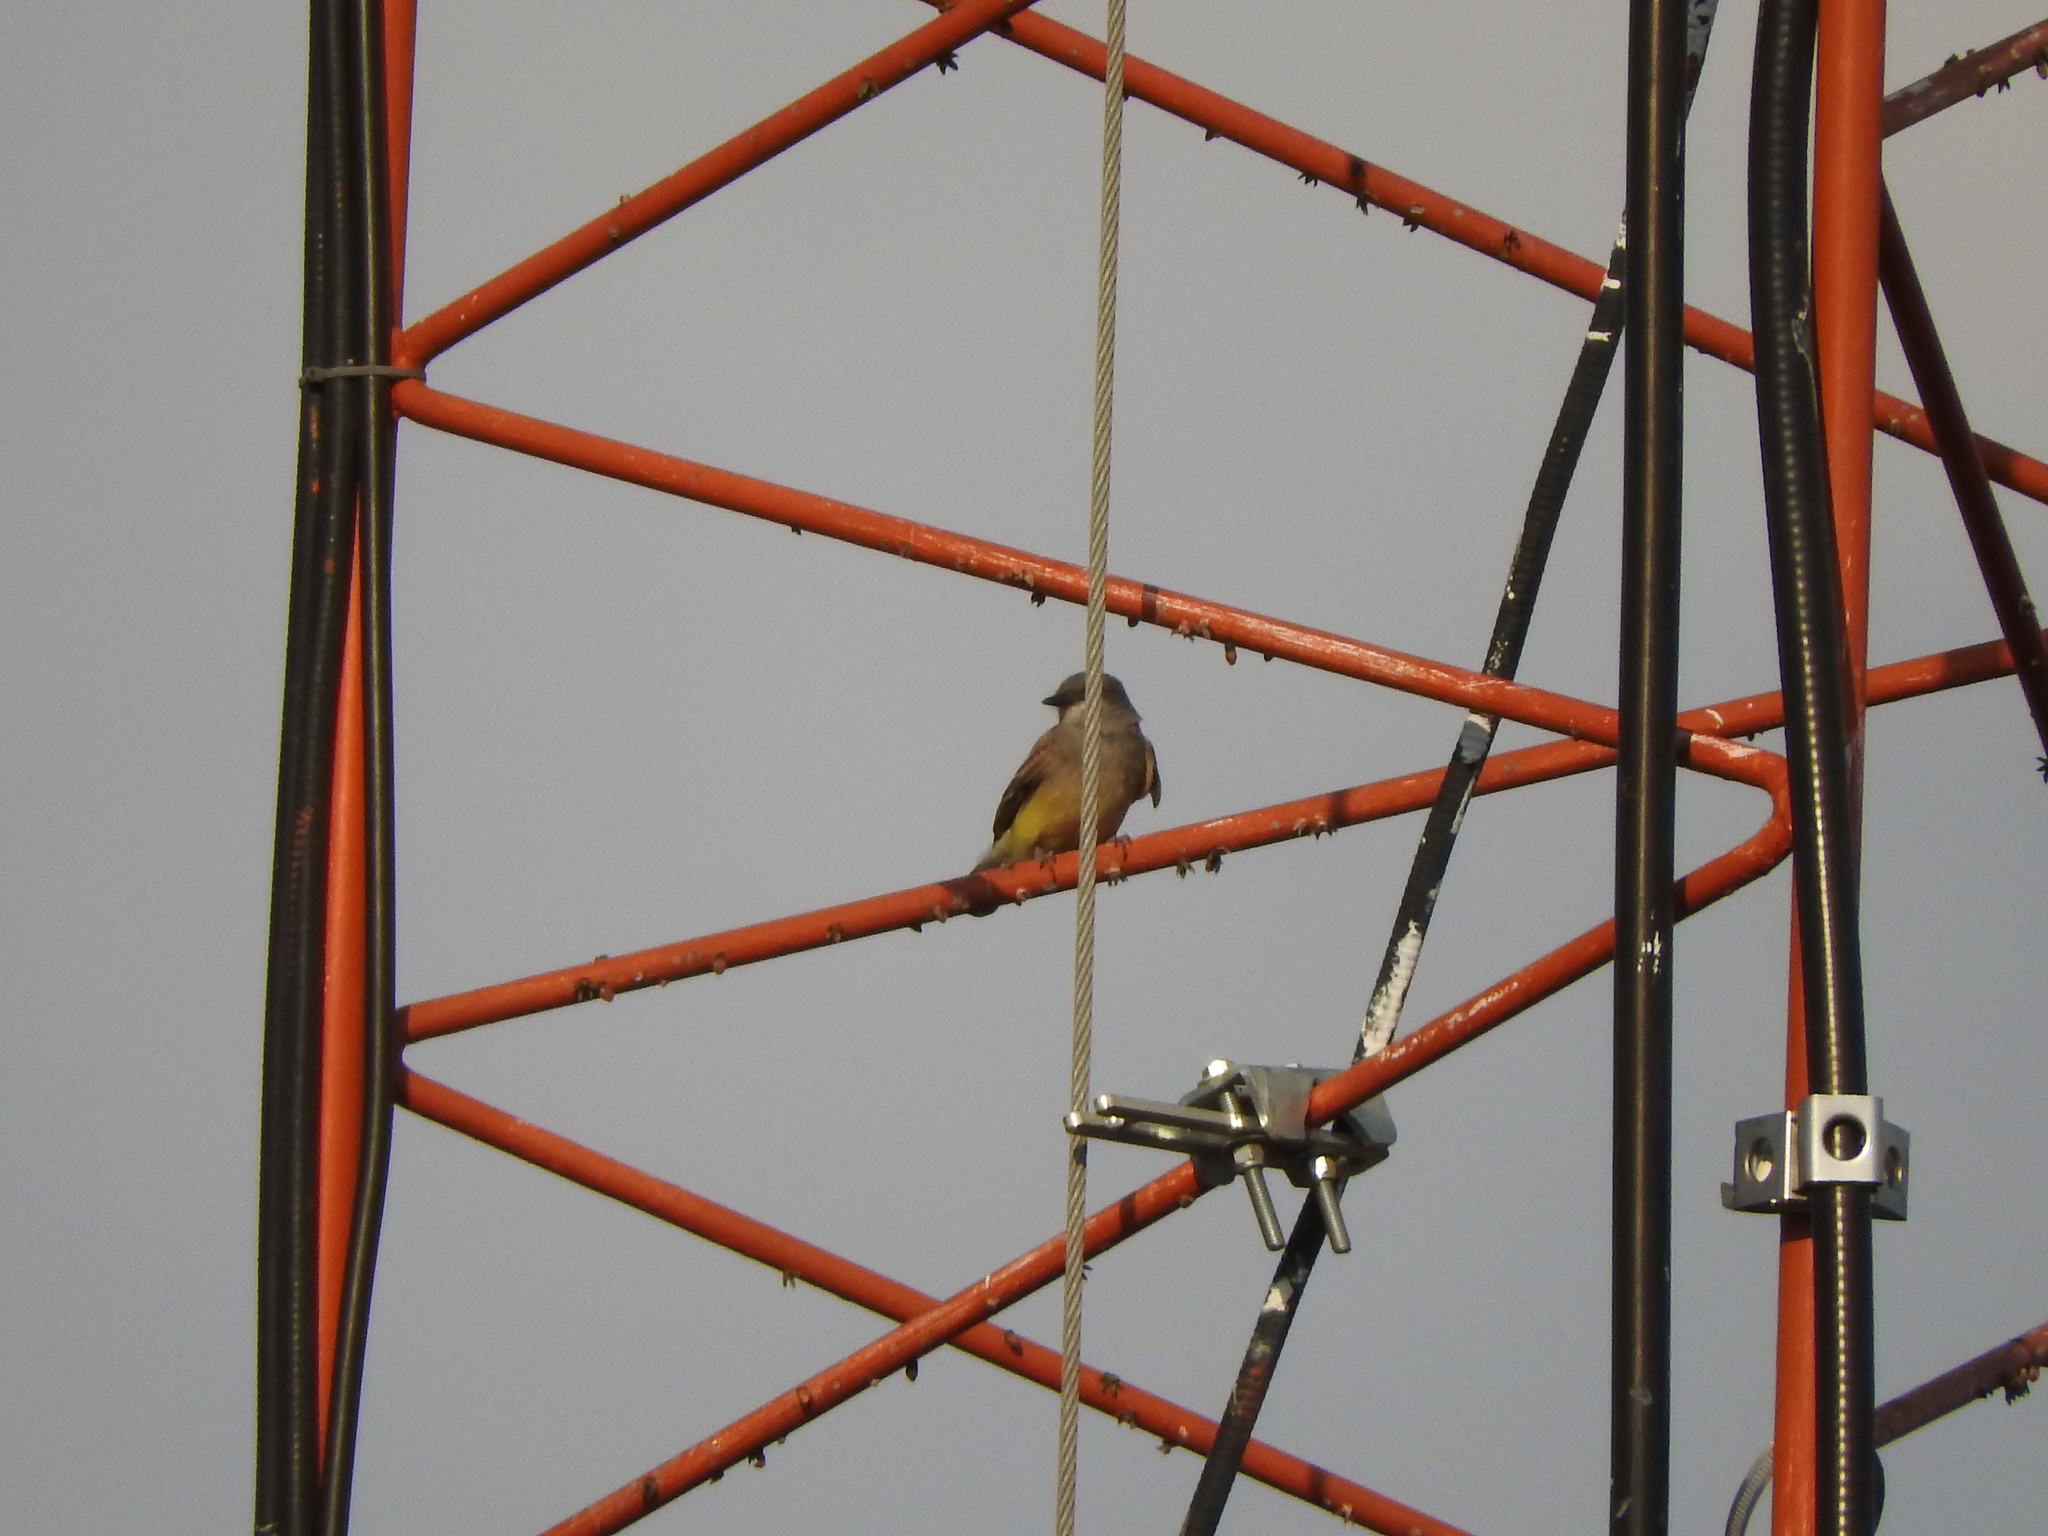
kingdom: Animalia
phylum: Chordata
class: Aves
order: Passeriformes
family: Tyrannidae
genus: Tyrannus
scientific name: Tyrannus vociferans
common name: Cassin's kingbird
